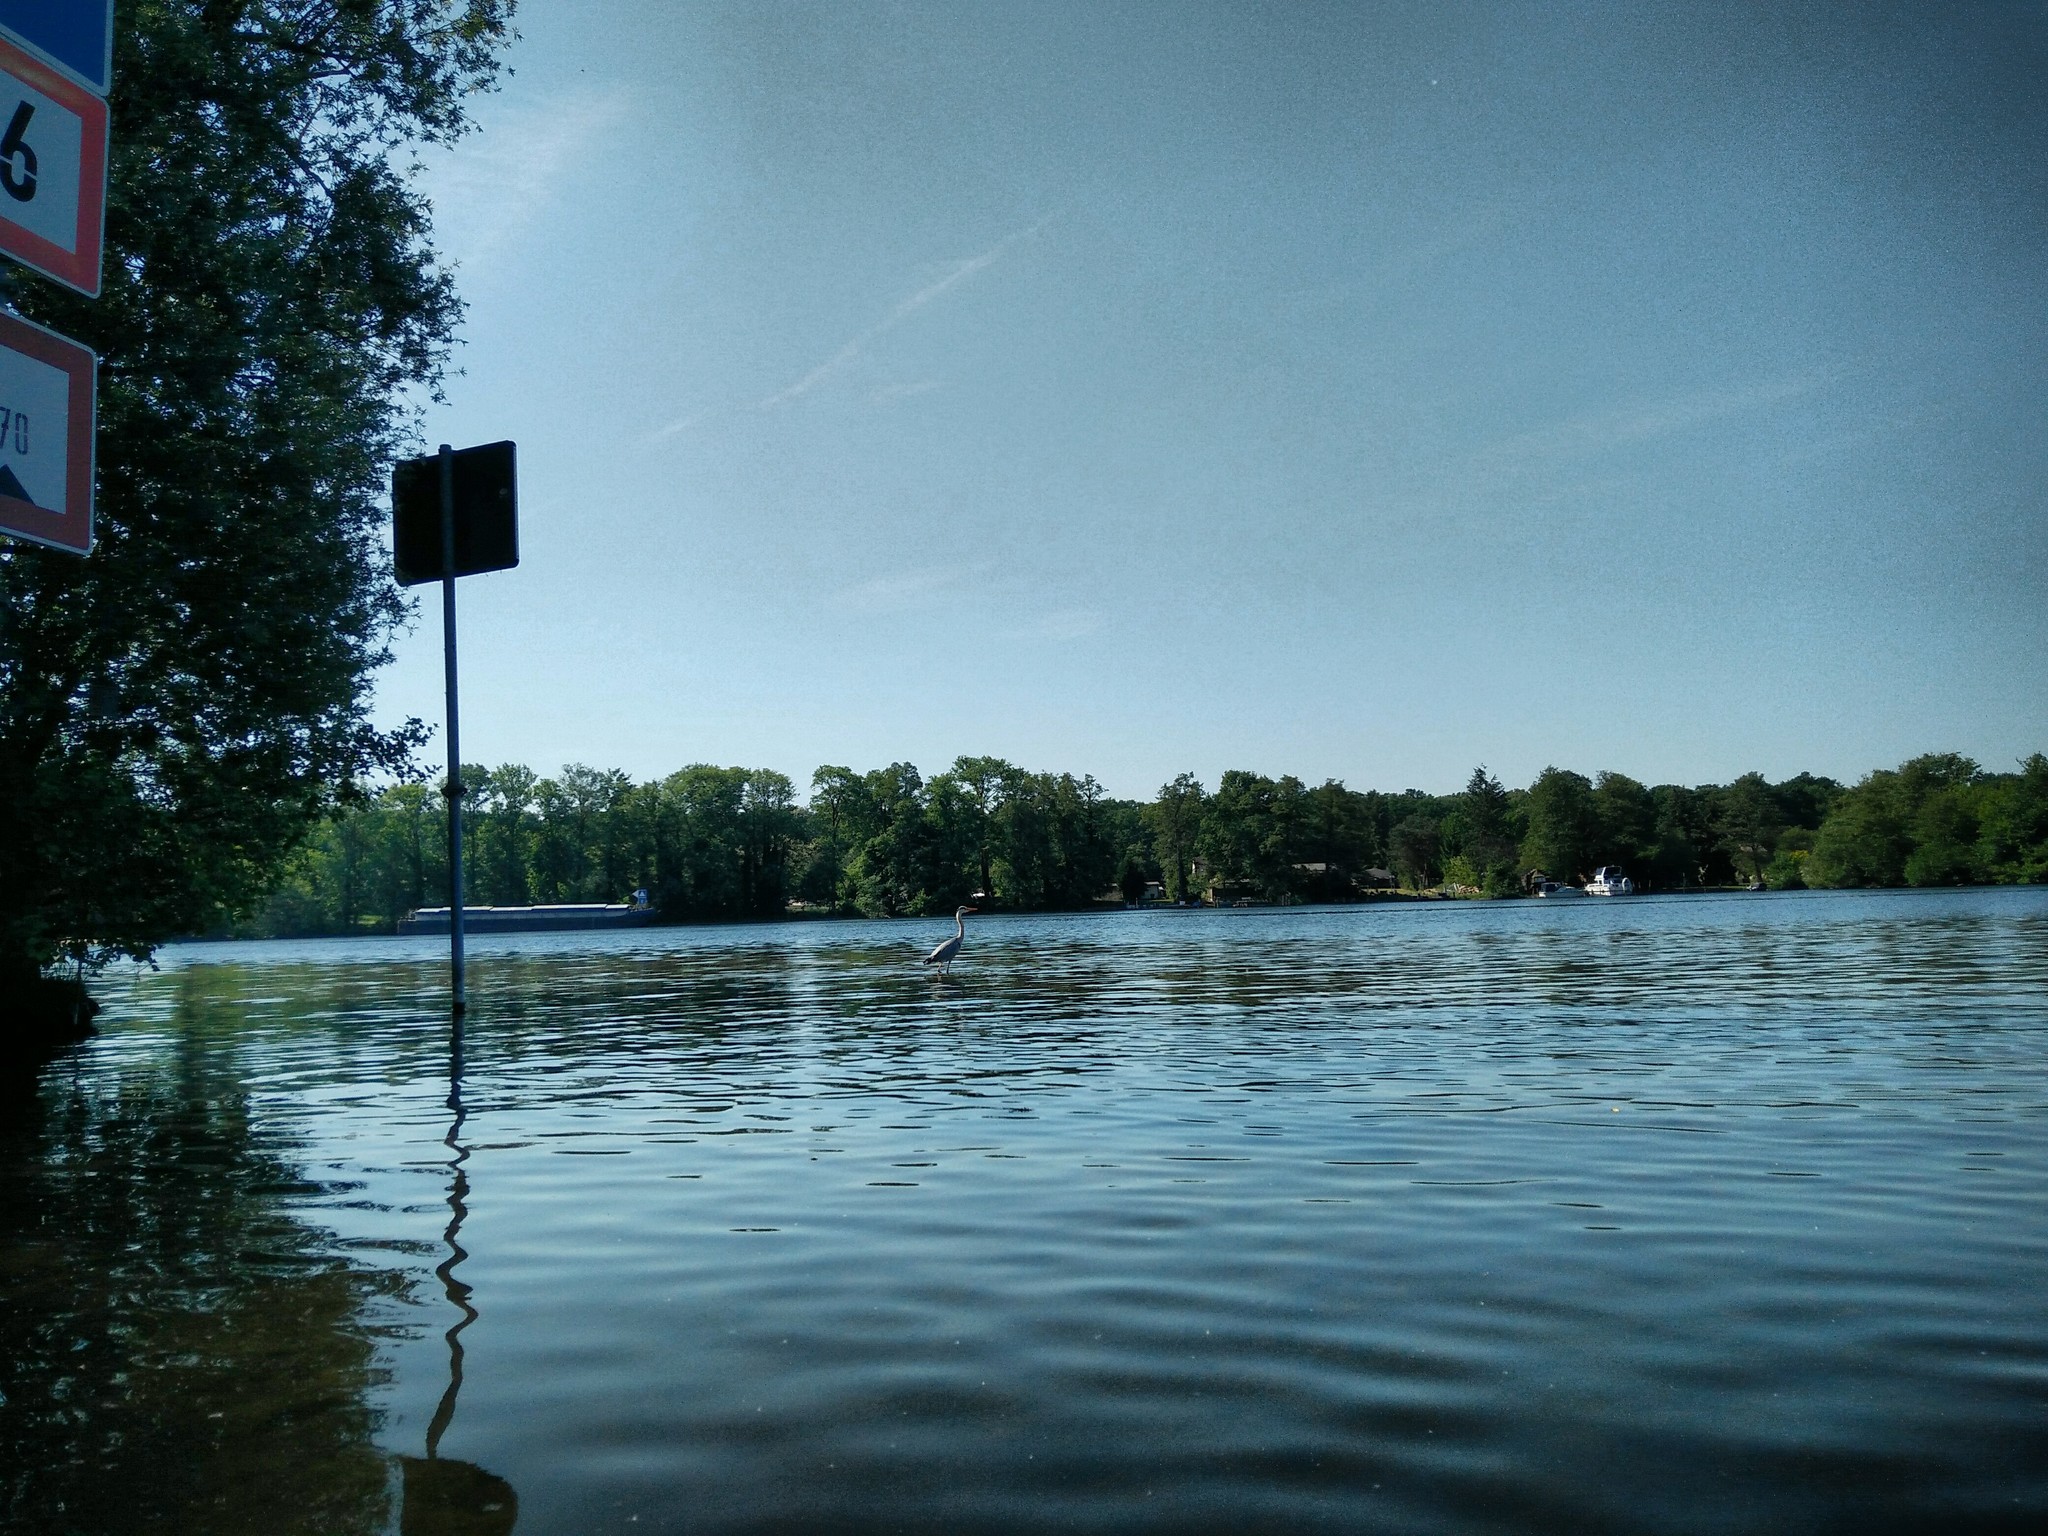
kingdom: Animalia
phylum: Chordata
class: Aves
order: Pelecaniformes
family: Ardeidae
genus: Ardea
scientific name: Ardea cinerea
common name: Grey heron
